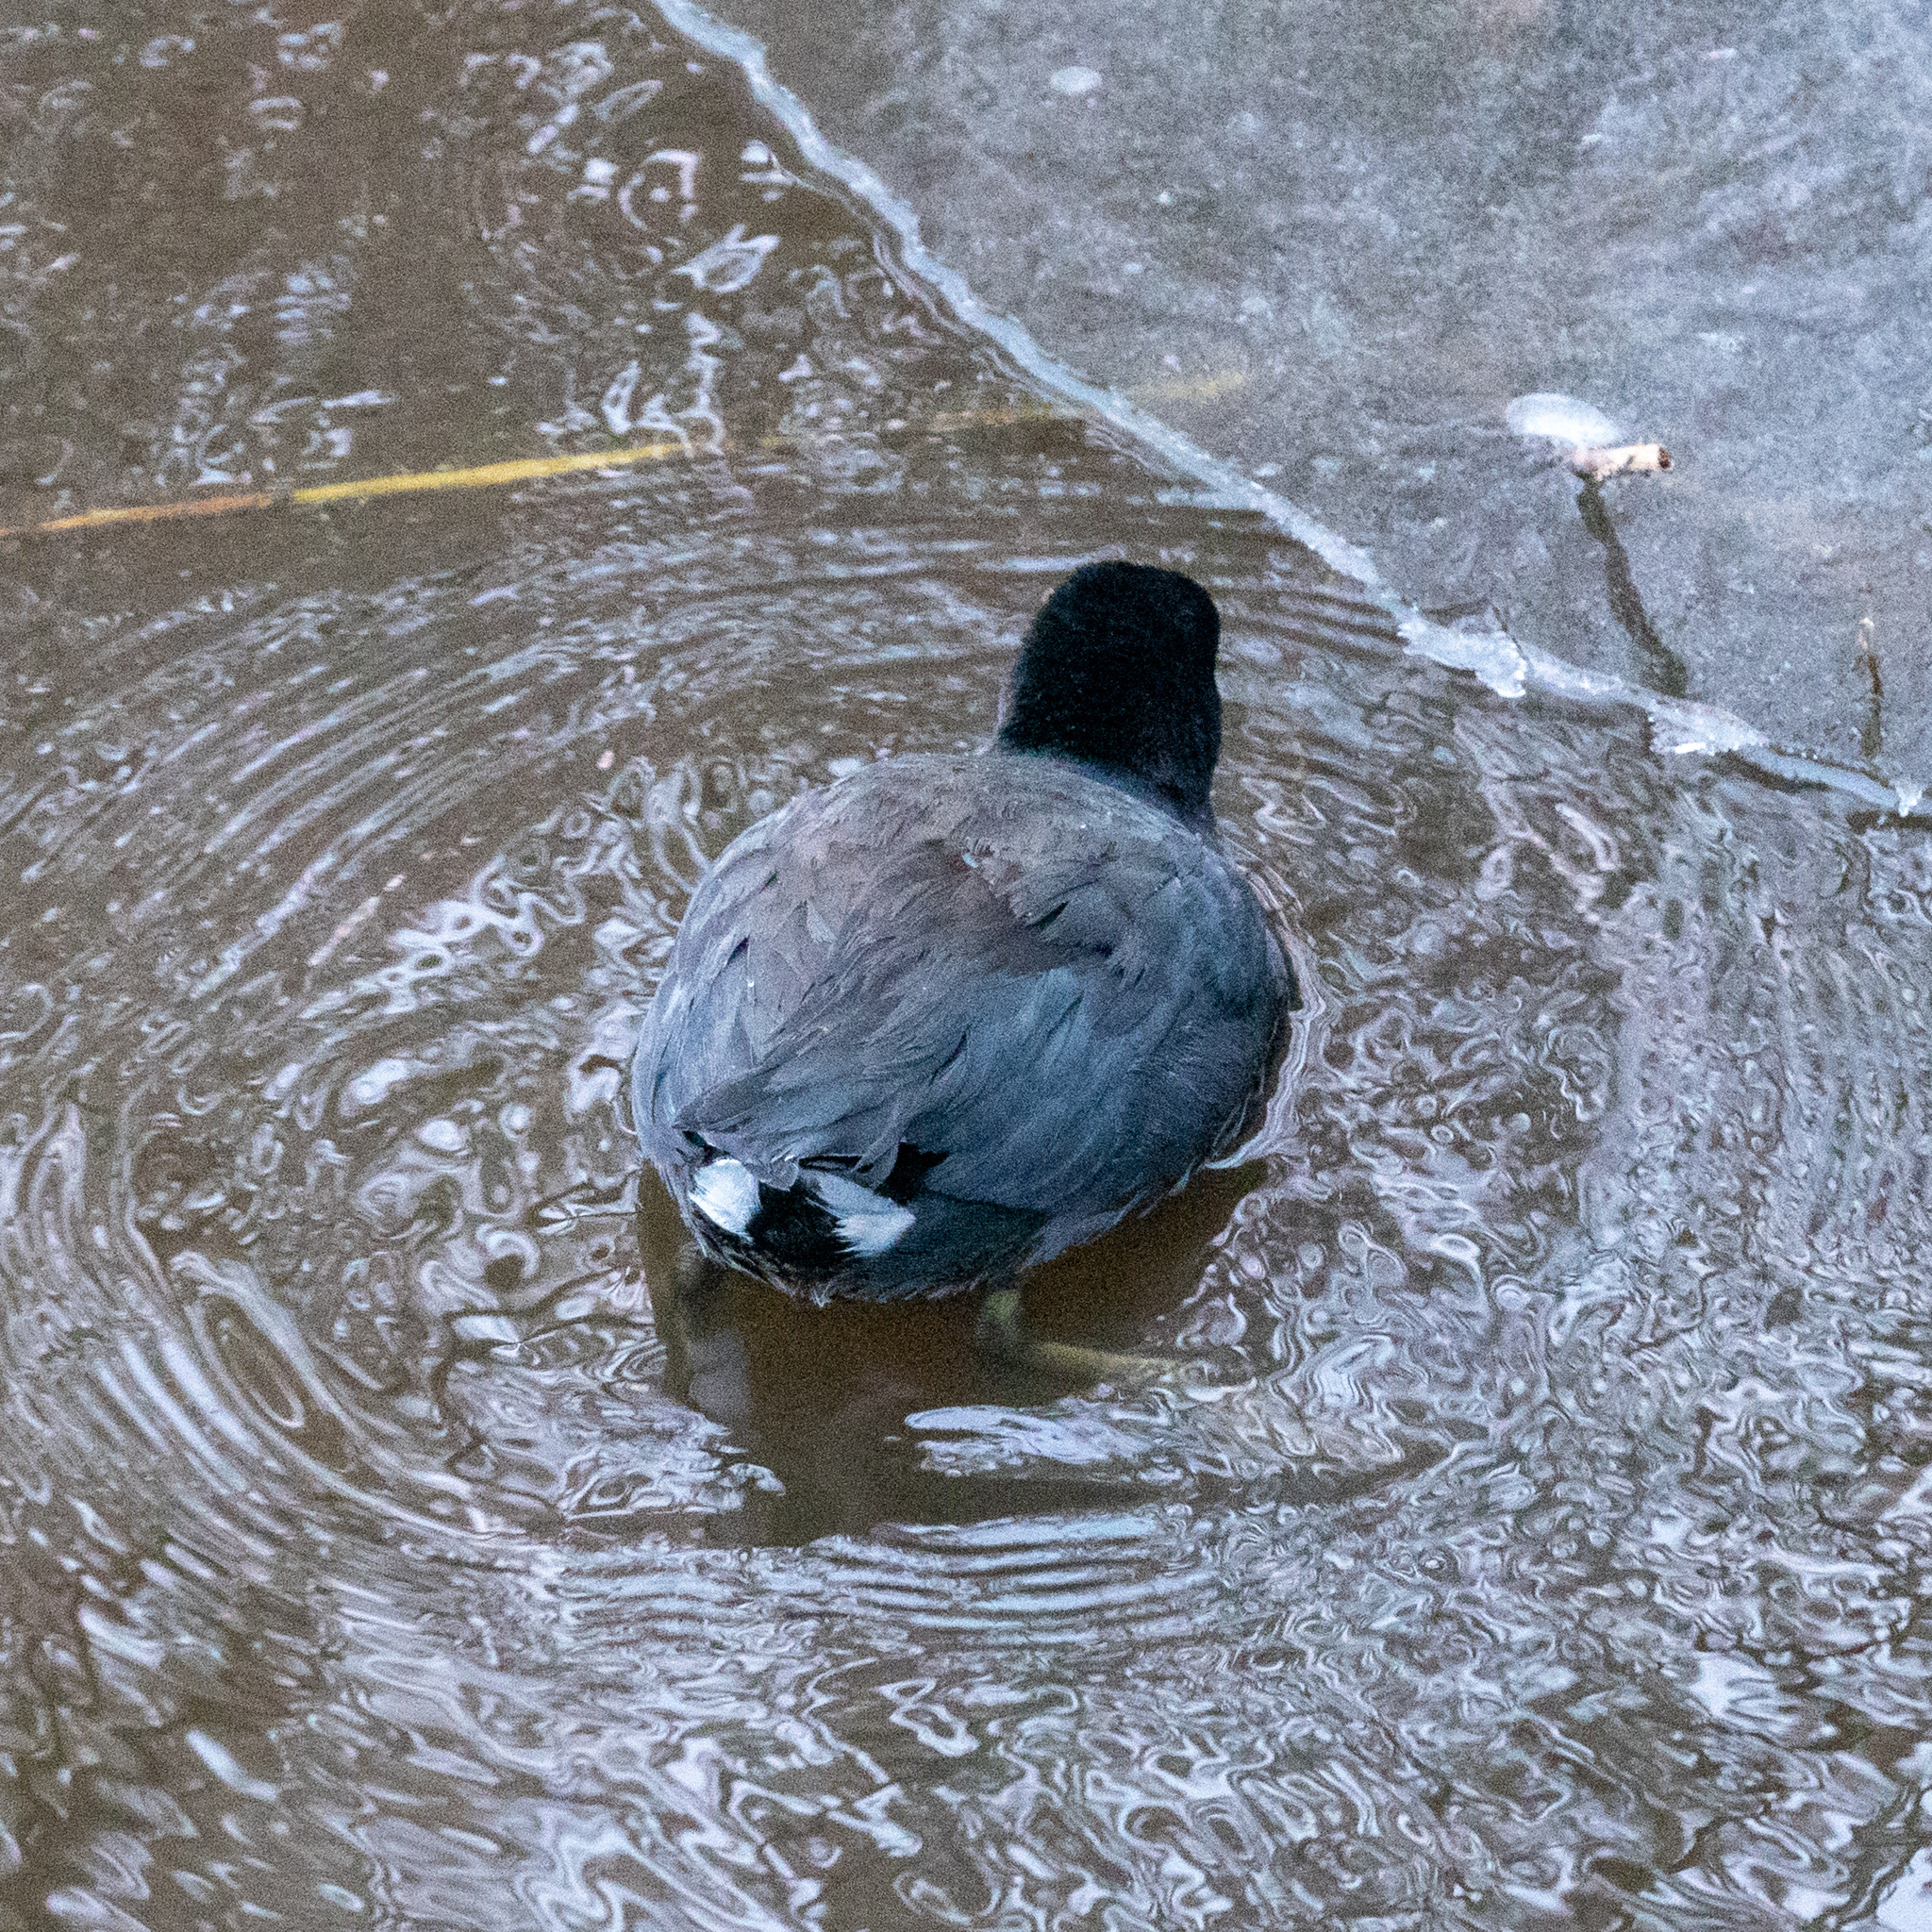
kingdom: Animalia
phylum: Chordata
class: Aves
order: Gruiformes
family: Rallidae
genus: Fulica
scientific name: Fulica americana
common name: American coot
